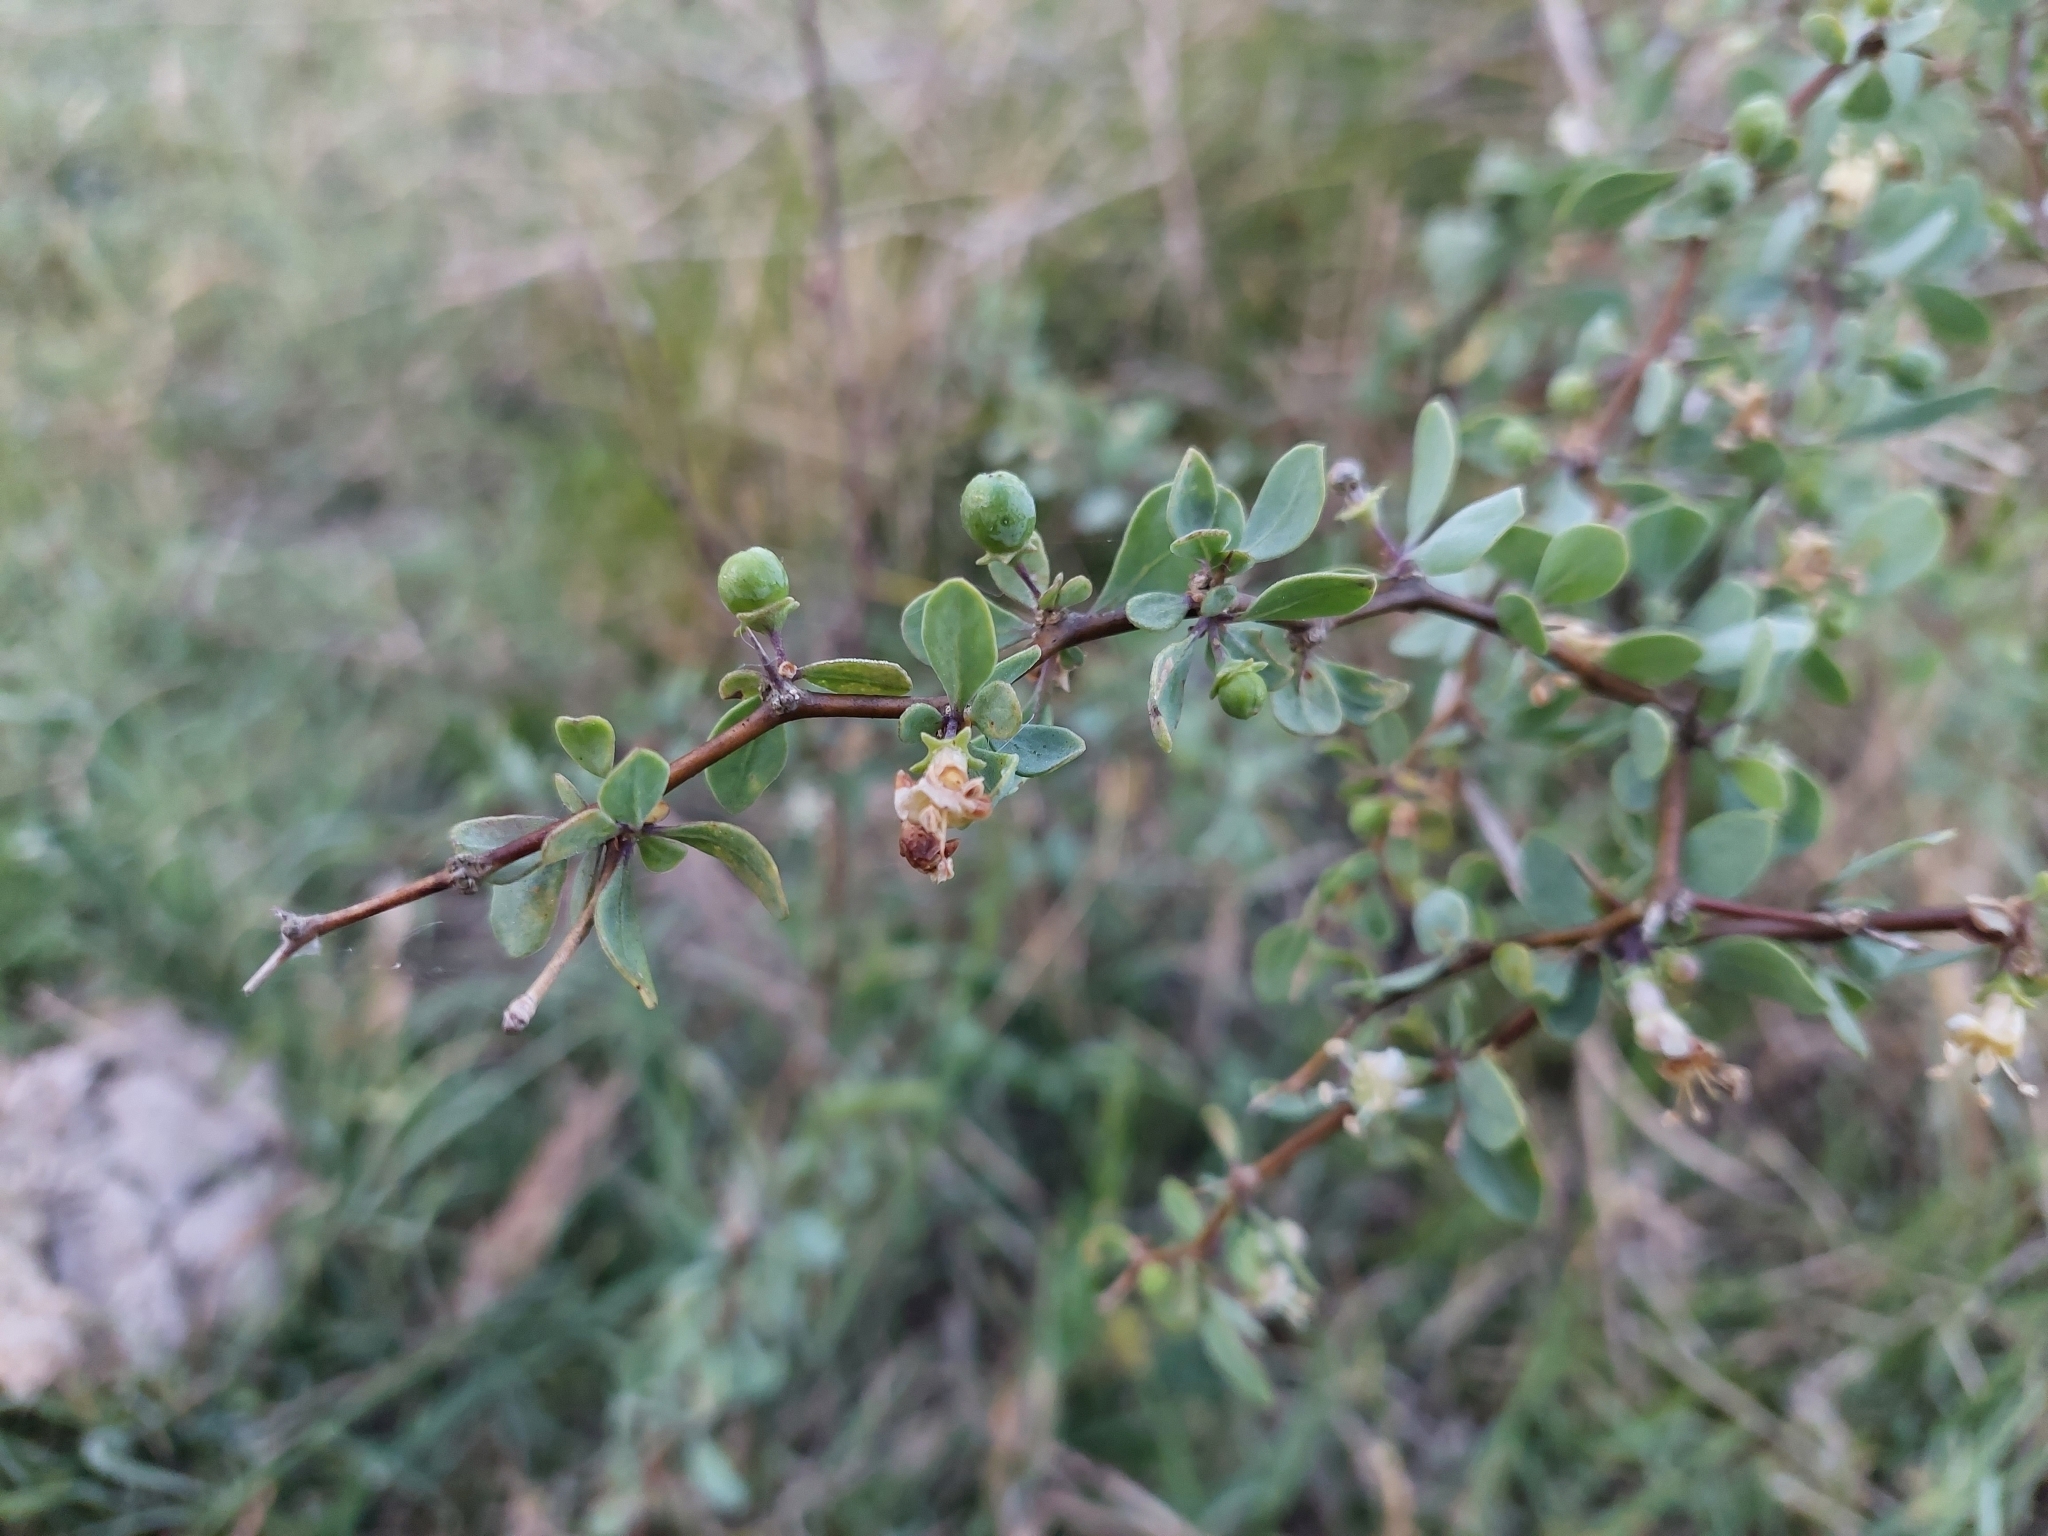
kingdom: Plantae
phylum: Tracheophyta
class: Magnoliopsida
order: Solanales
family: Solanaceae
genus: Lycium
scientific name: Lycium boerhaaviifolium
